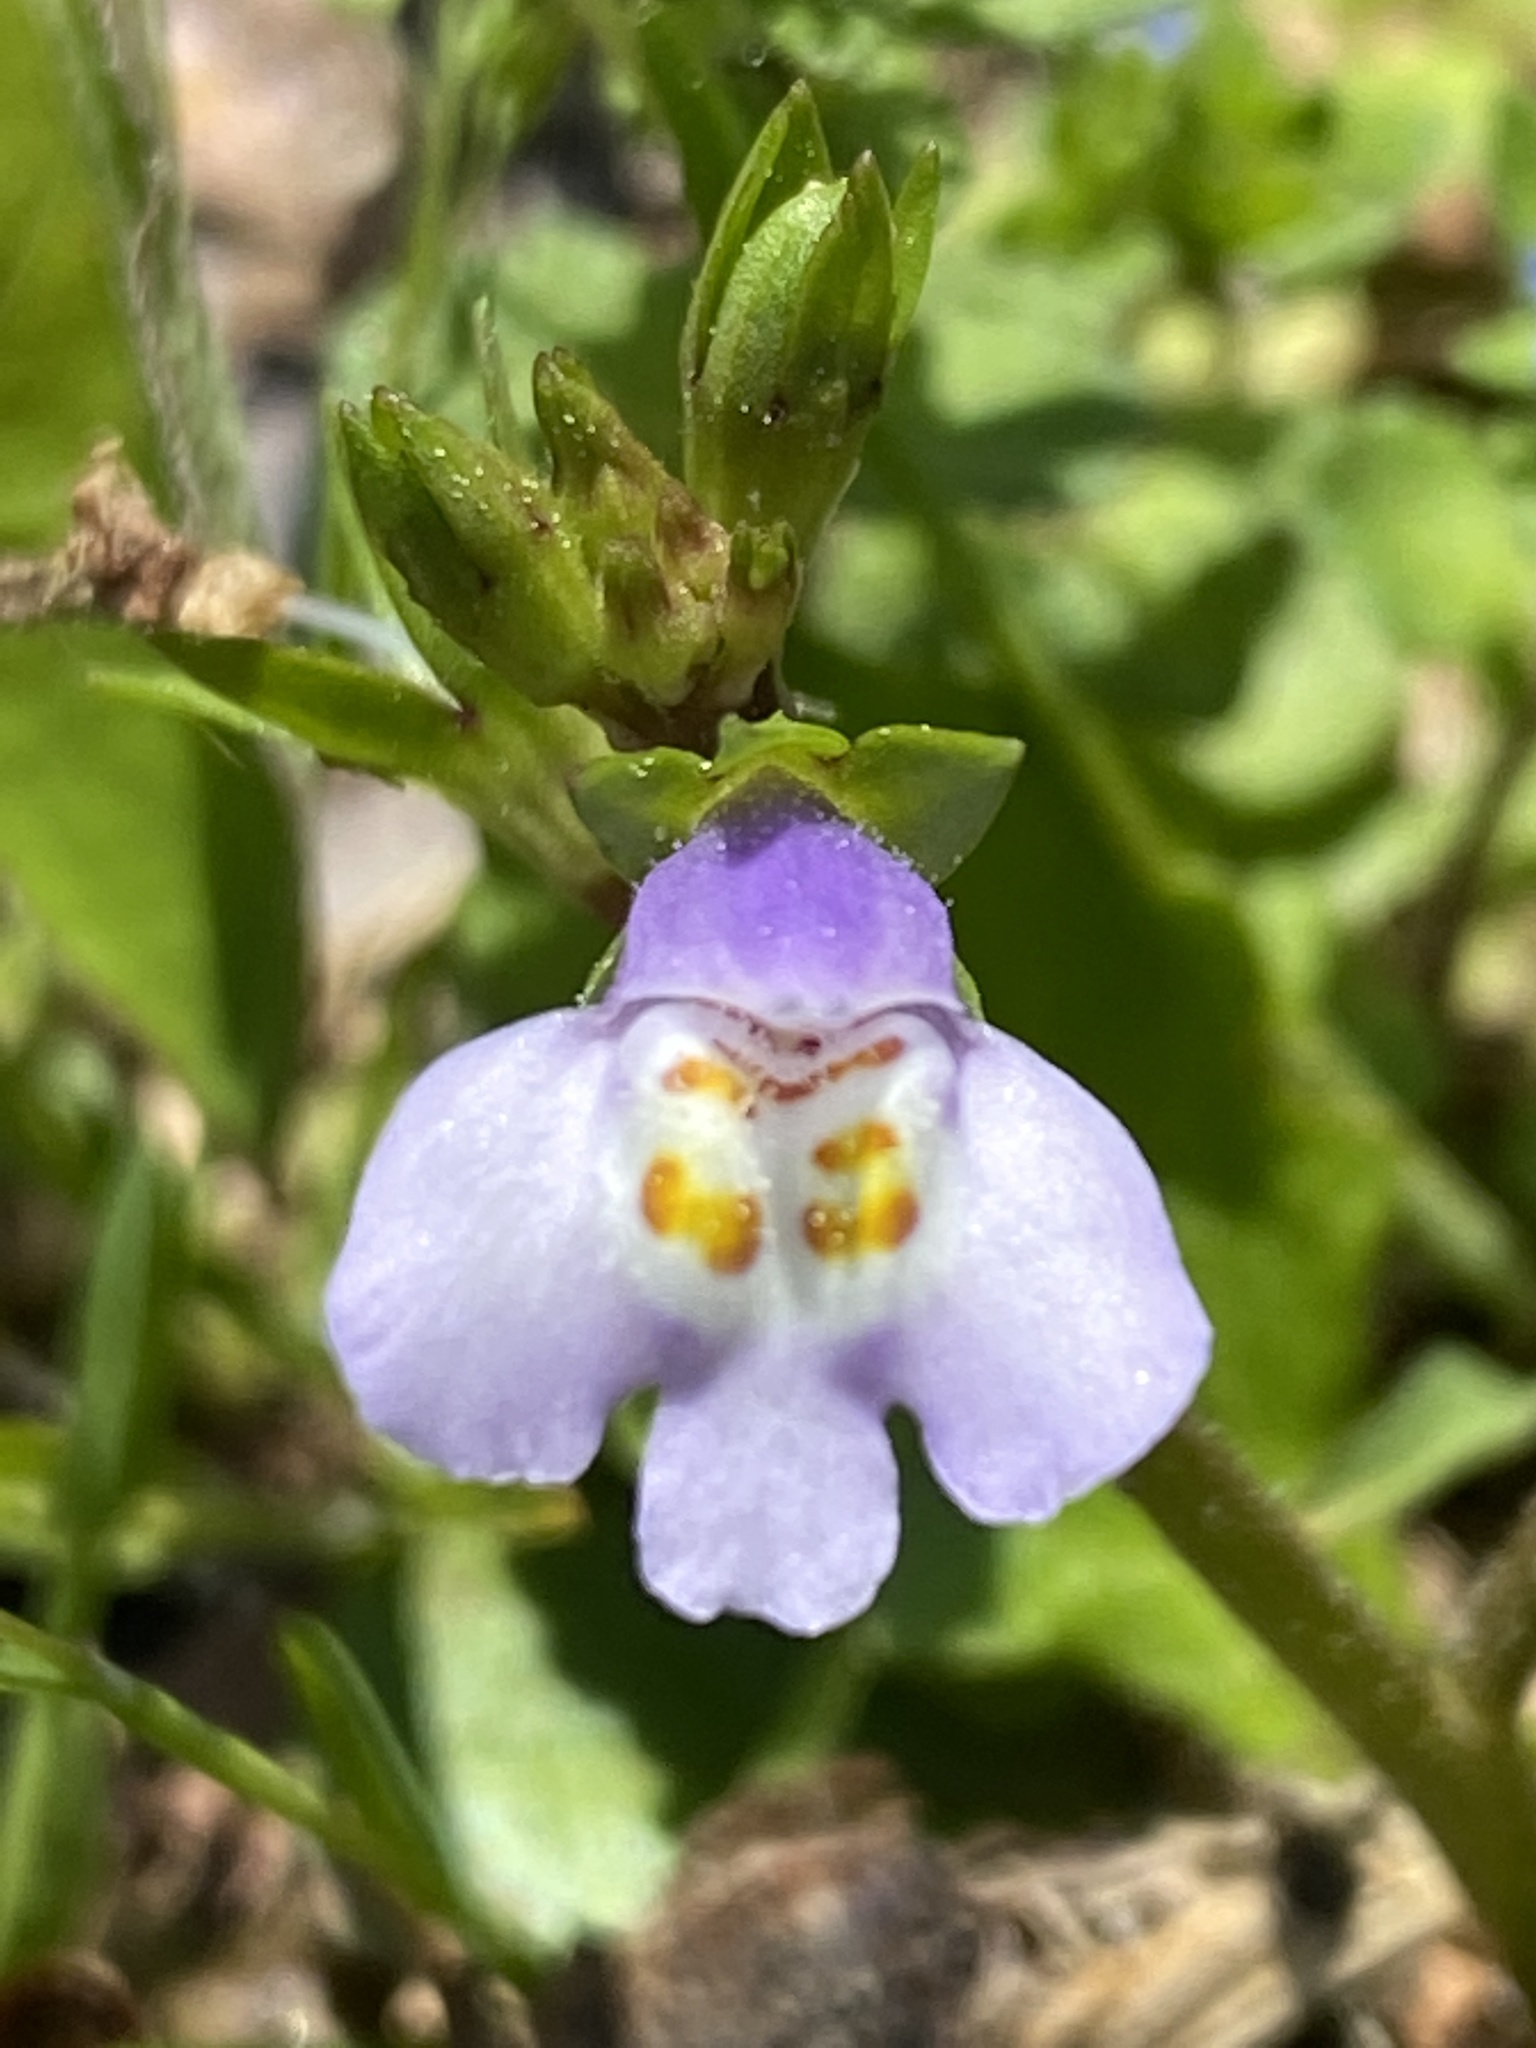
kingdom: Plantae
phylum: Tracheophyta
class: Magnoliopsida
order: Lamiales
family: Mazaceae
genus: Mazus
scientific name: Mazus pumilus
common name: Japanese mazus
